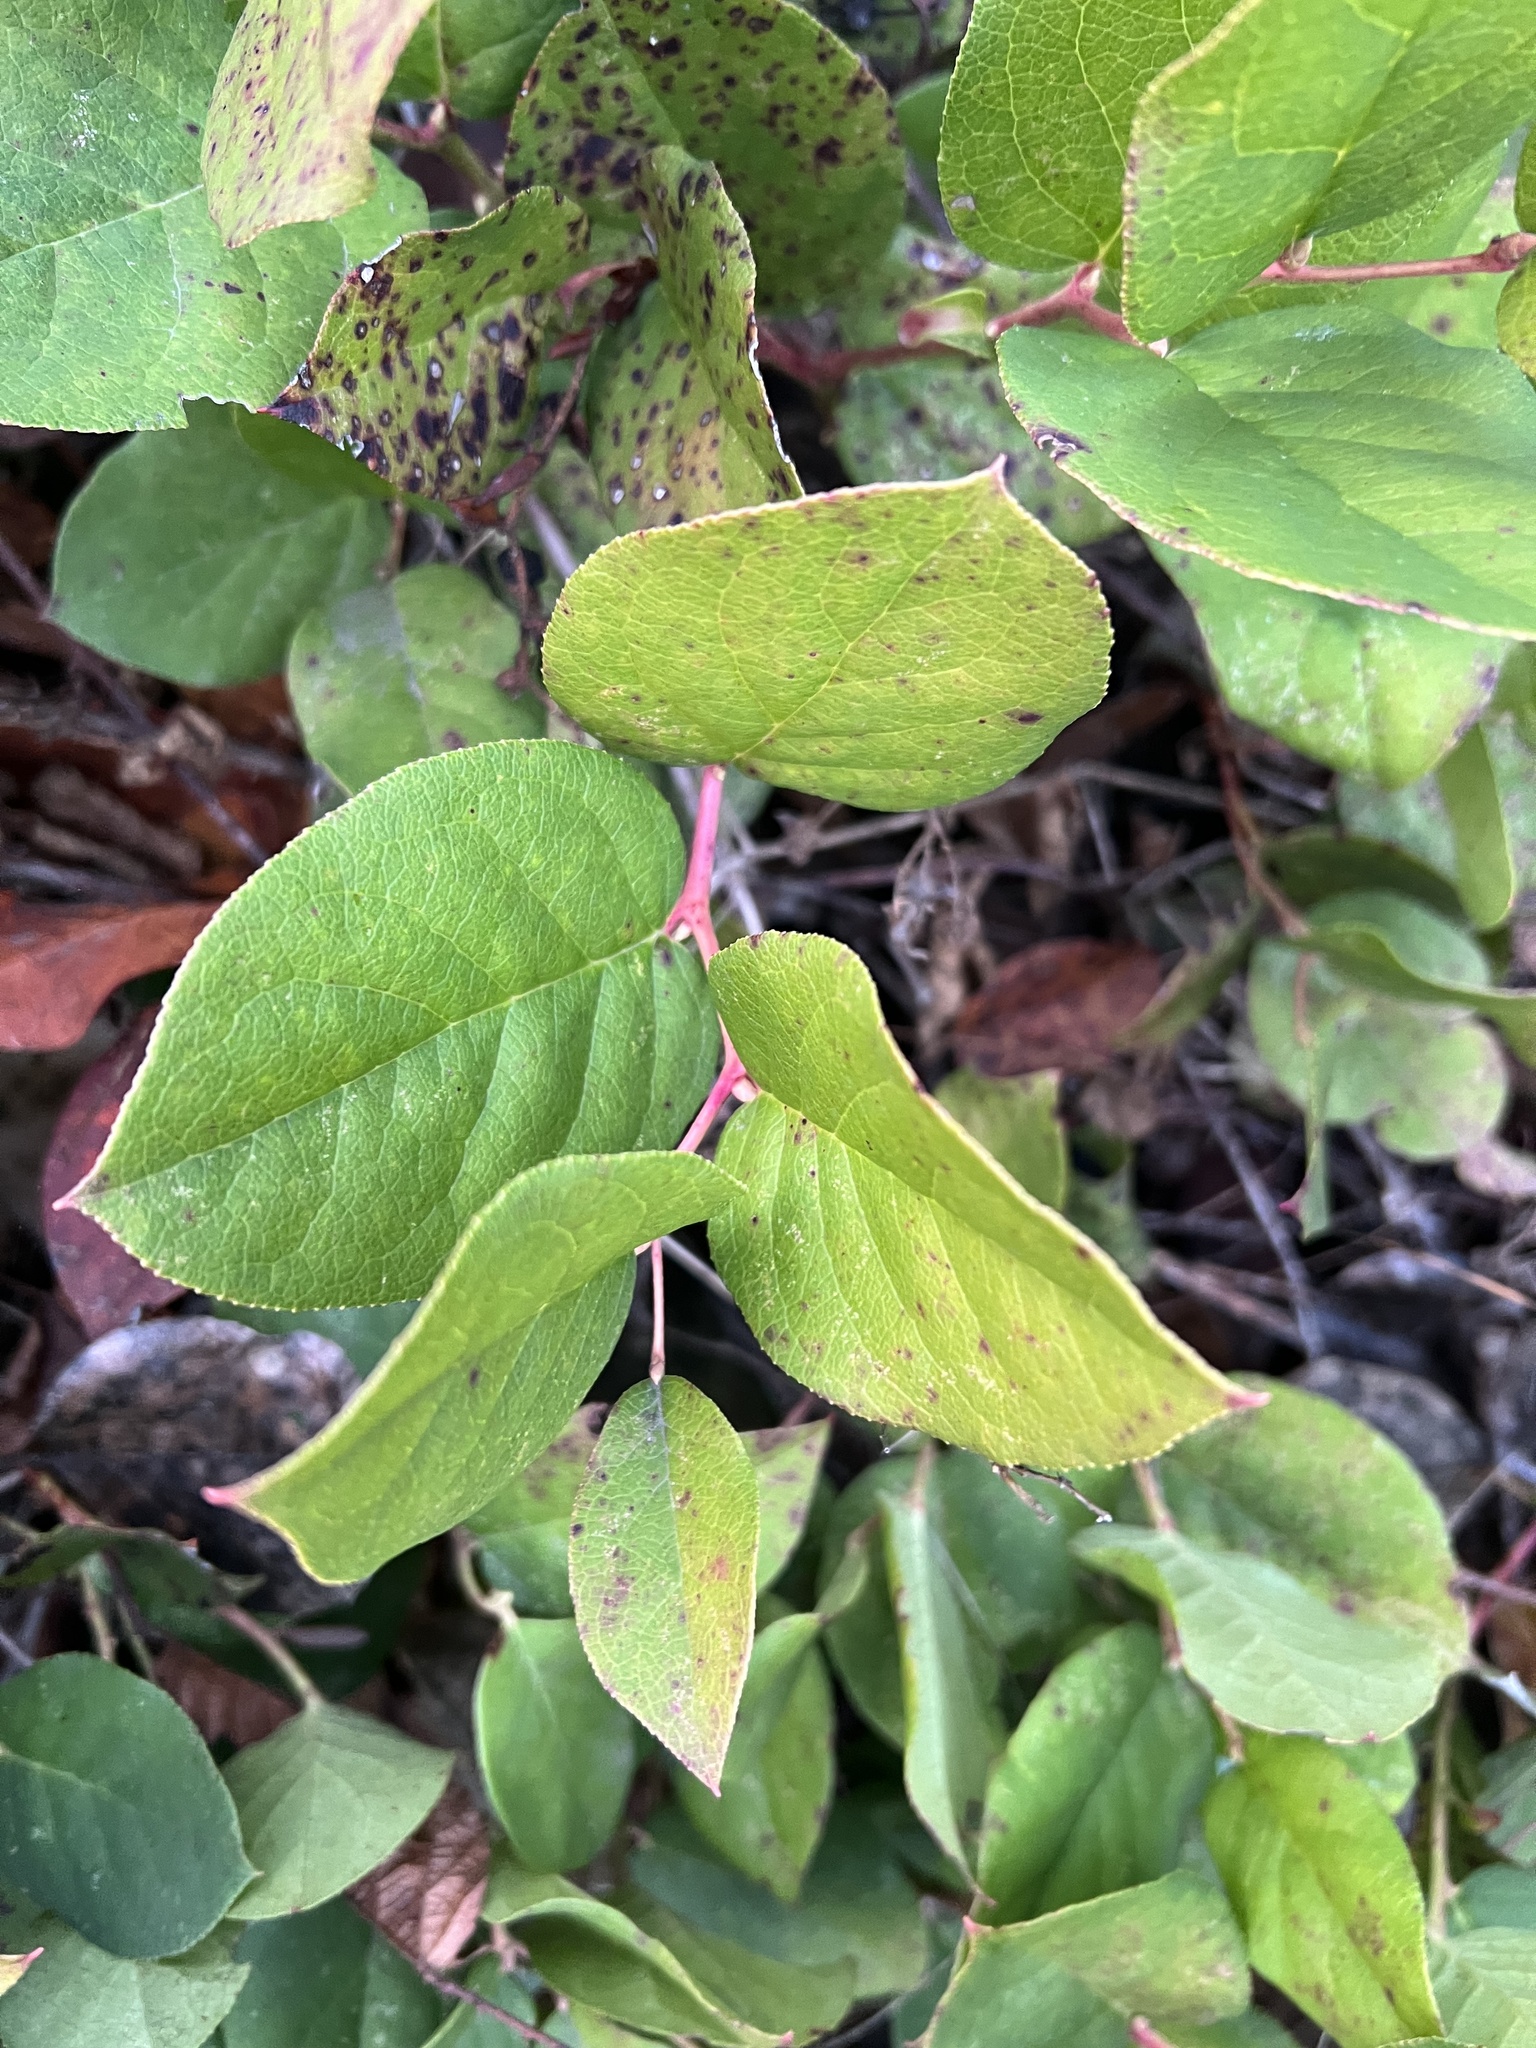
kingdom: Plantae
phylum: Tracheophyta
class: Magnoliopsida
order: Ericales
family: Ericaceae
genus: Gaultheria
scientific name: Gaultheria shallon
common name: Shallon
